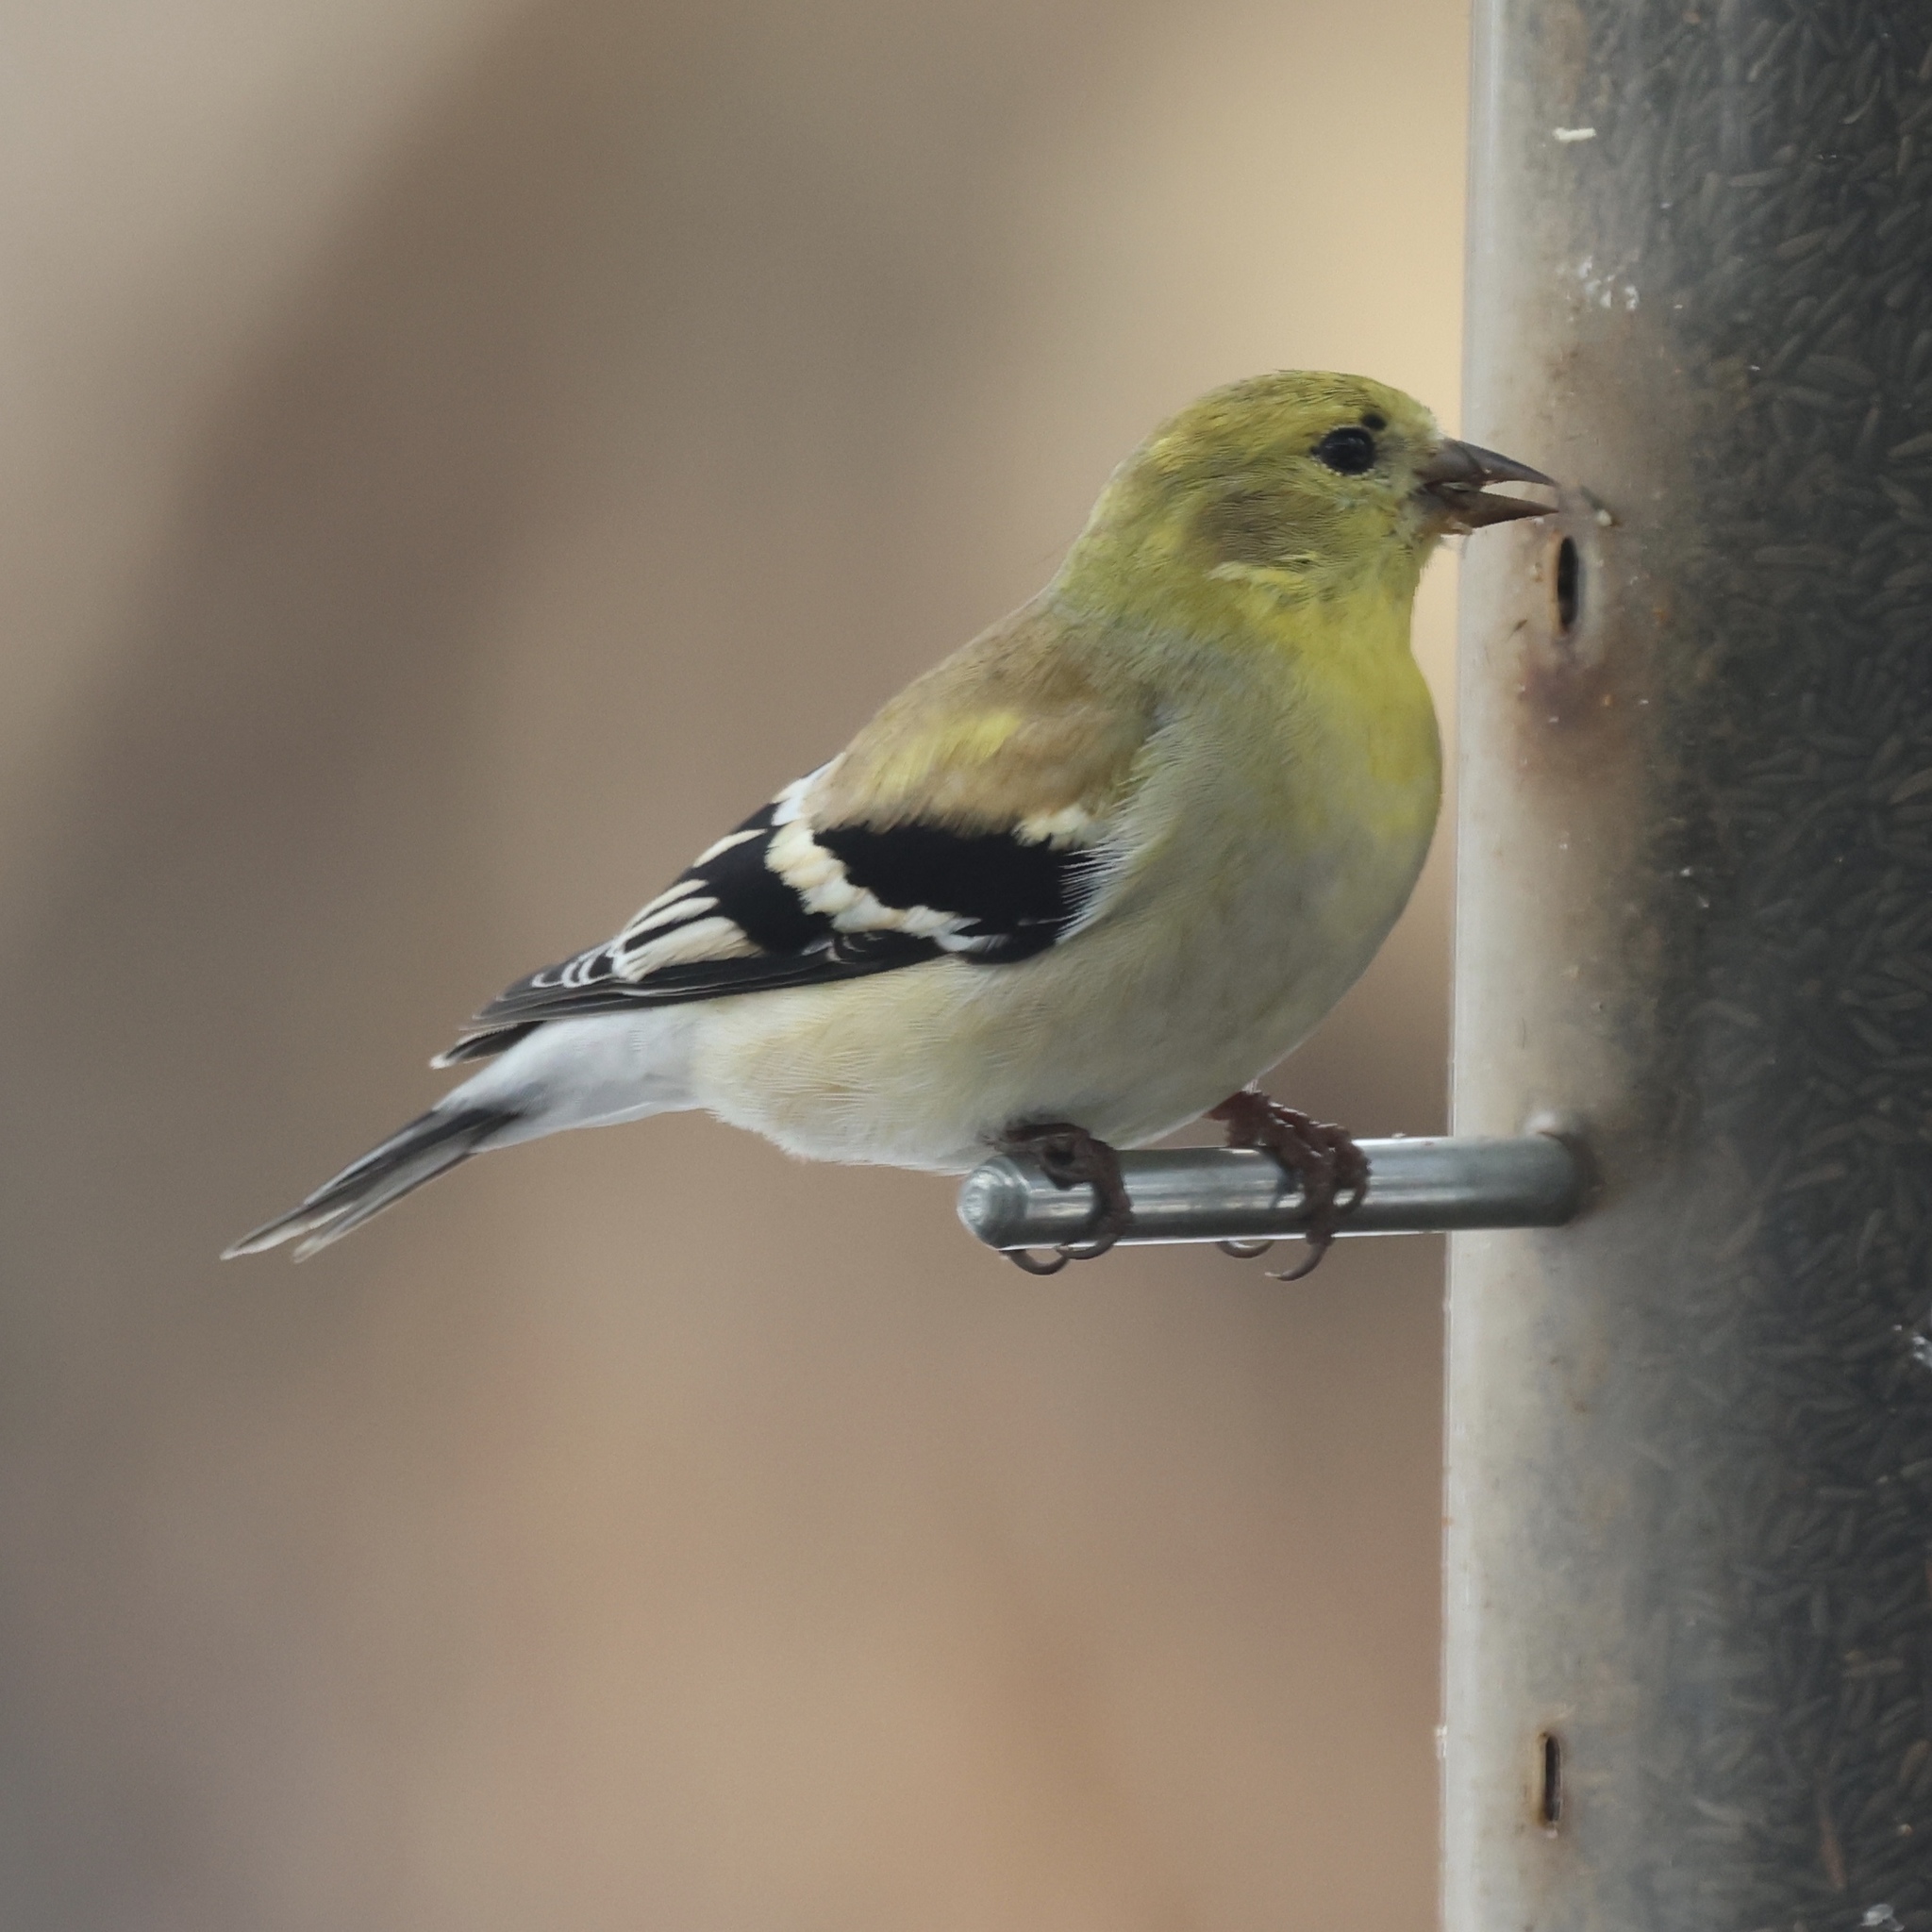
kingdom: Animalia
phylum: Chordata
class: Aves
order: Passeriformes
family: Fringillidae
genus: Spinus
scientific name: Spinus tristis
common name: American goldfinch
